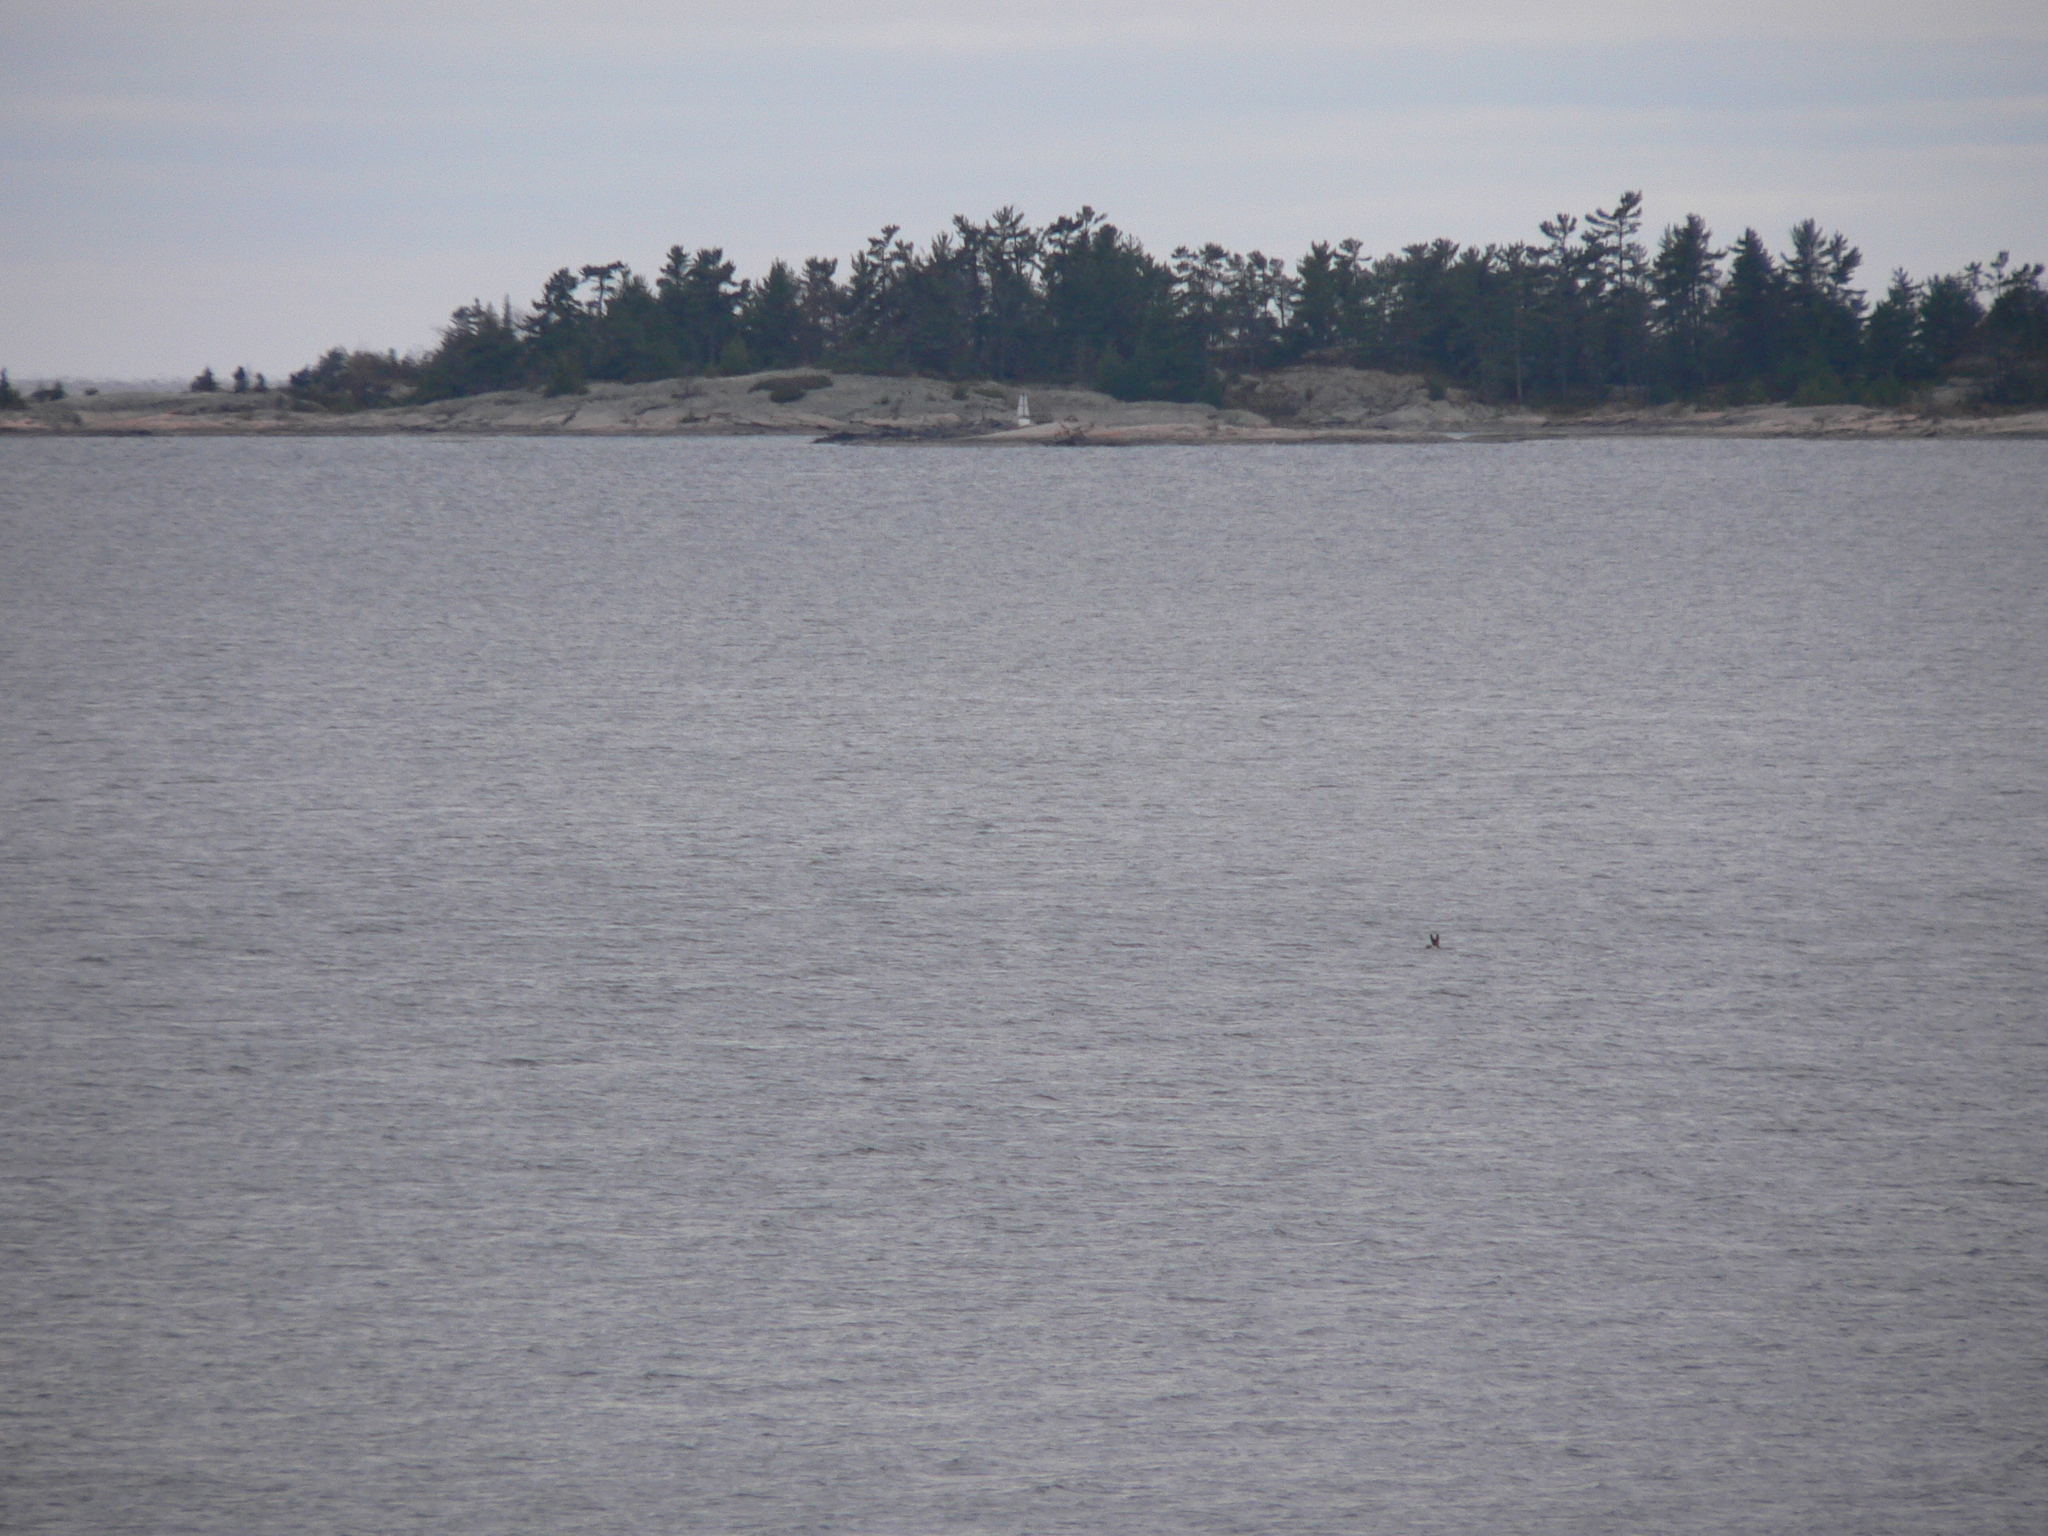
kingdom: Animalia
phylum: Chordata
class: Mammalia
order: Artiodactyla
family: Cervidae
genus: Odocoileus
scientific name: Odocoileus virginianus
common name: White-tailed deer
